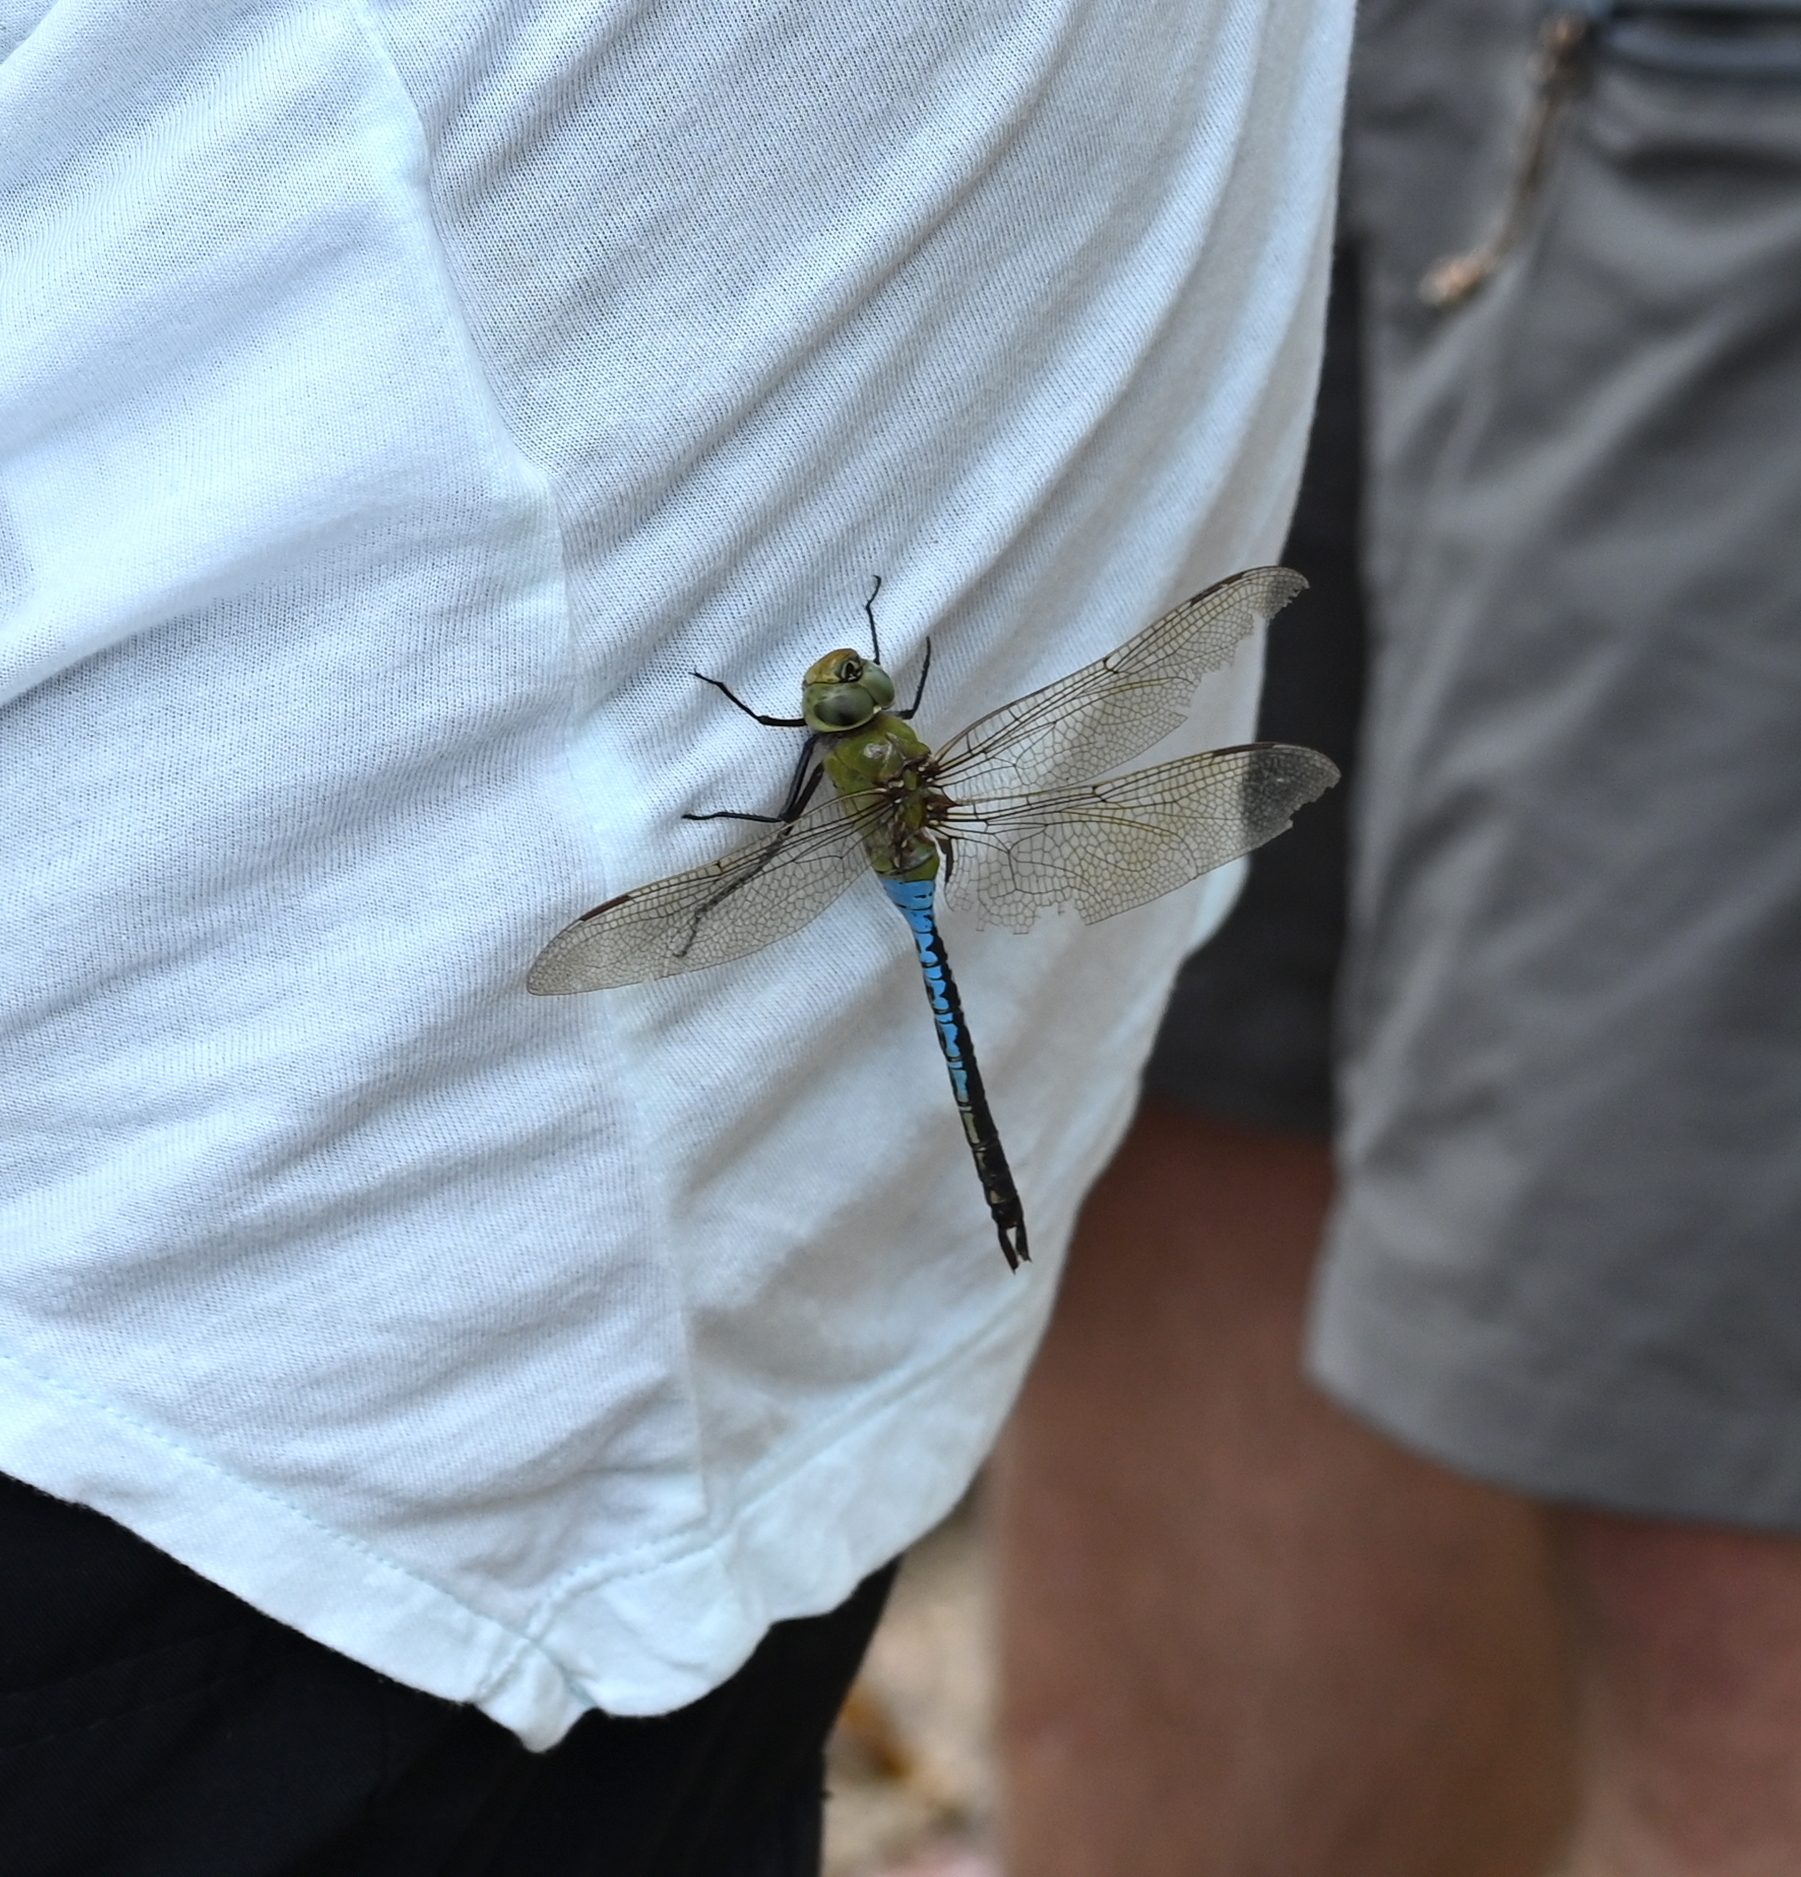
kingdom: Animalia
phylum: Arthropoda
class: Insecta
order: Odonata
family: Aeshnidae
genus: Anax
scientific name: Anax junius
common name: Common green darner
